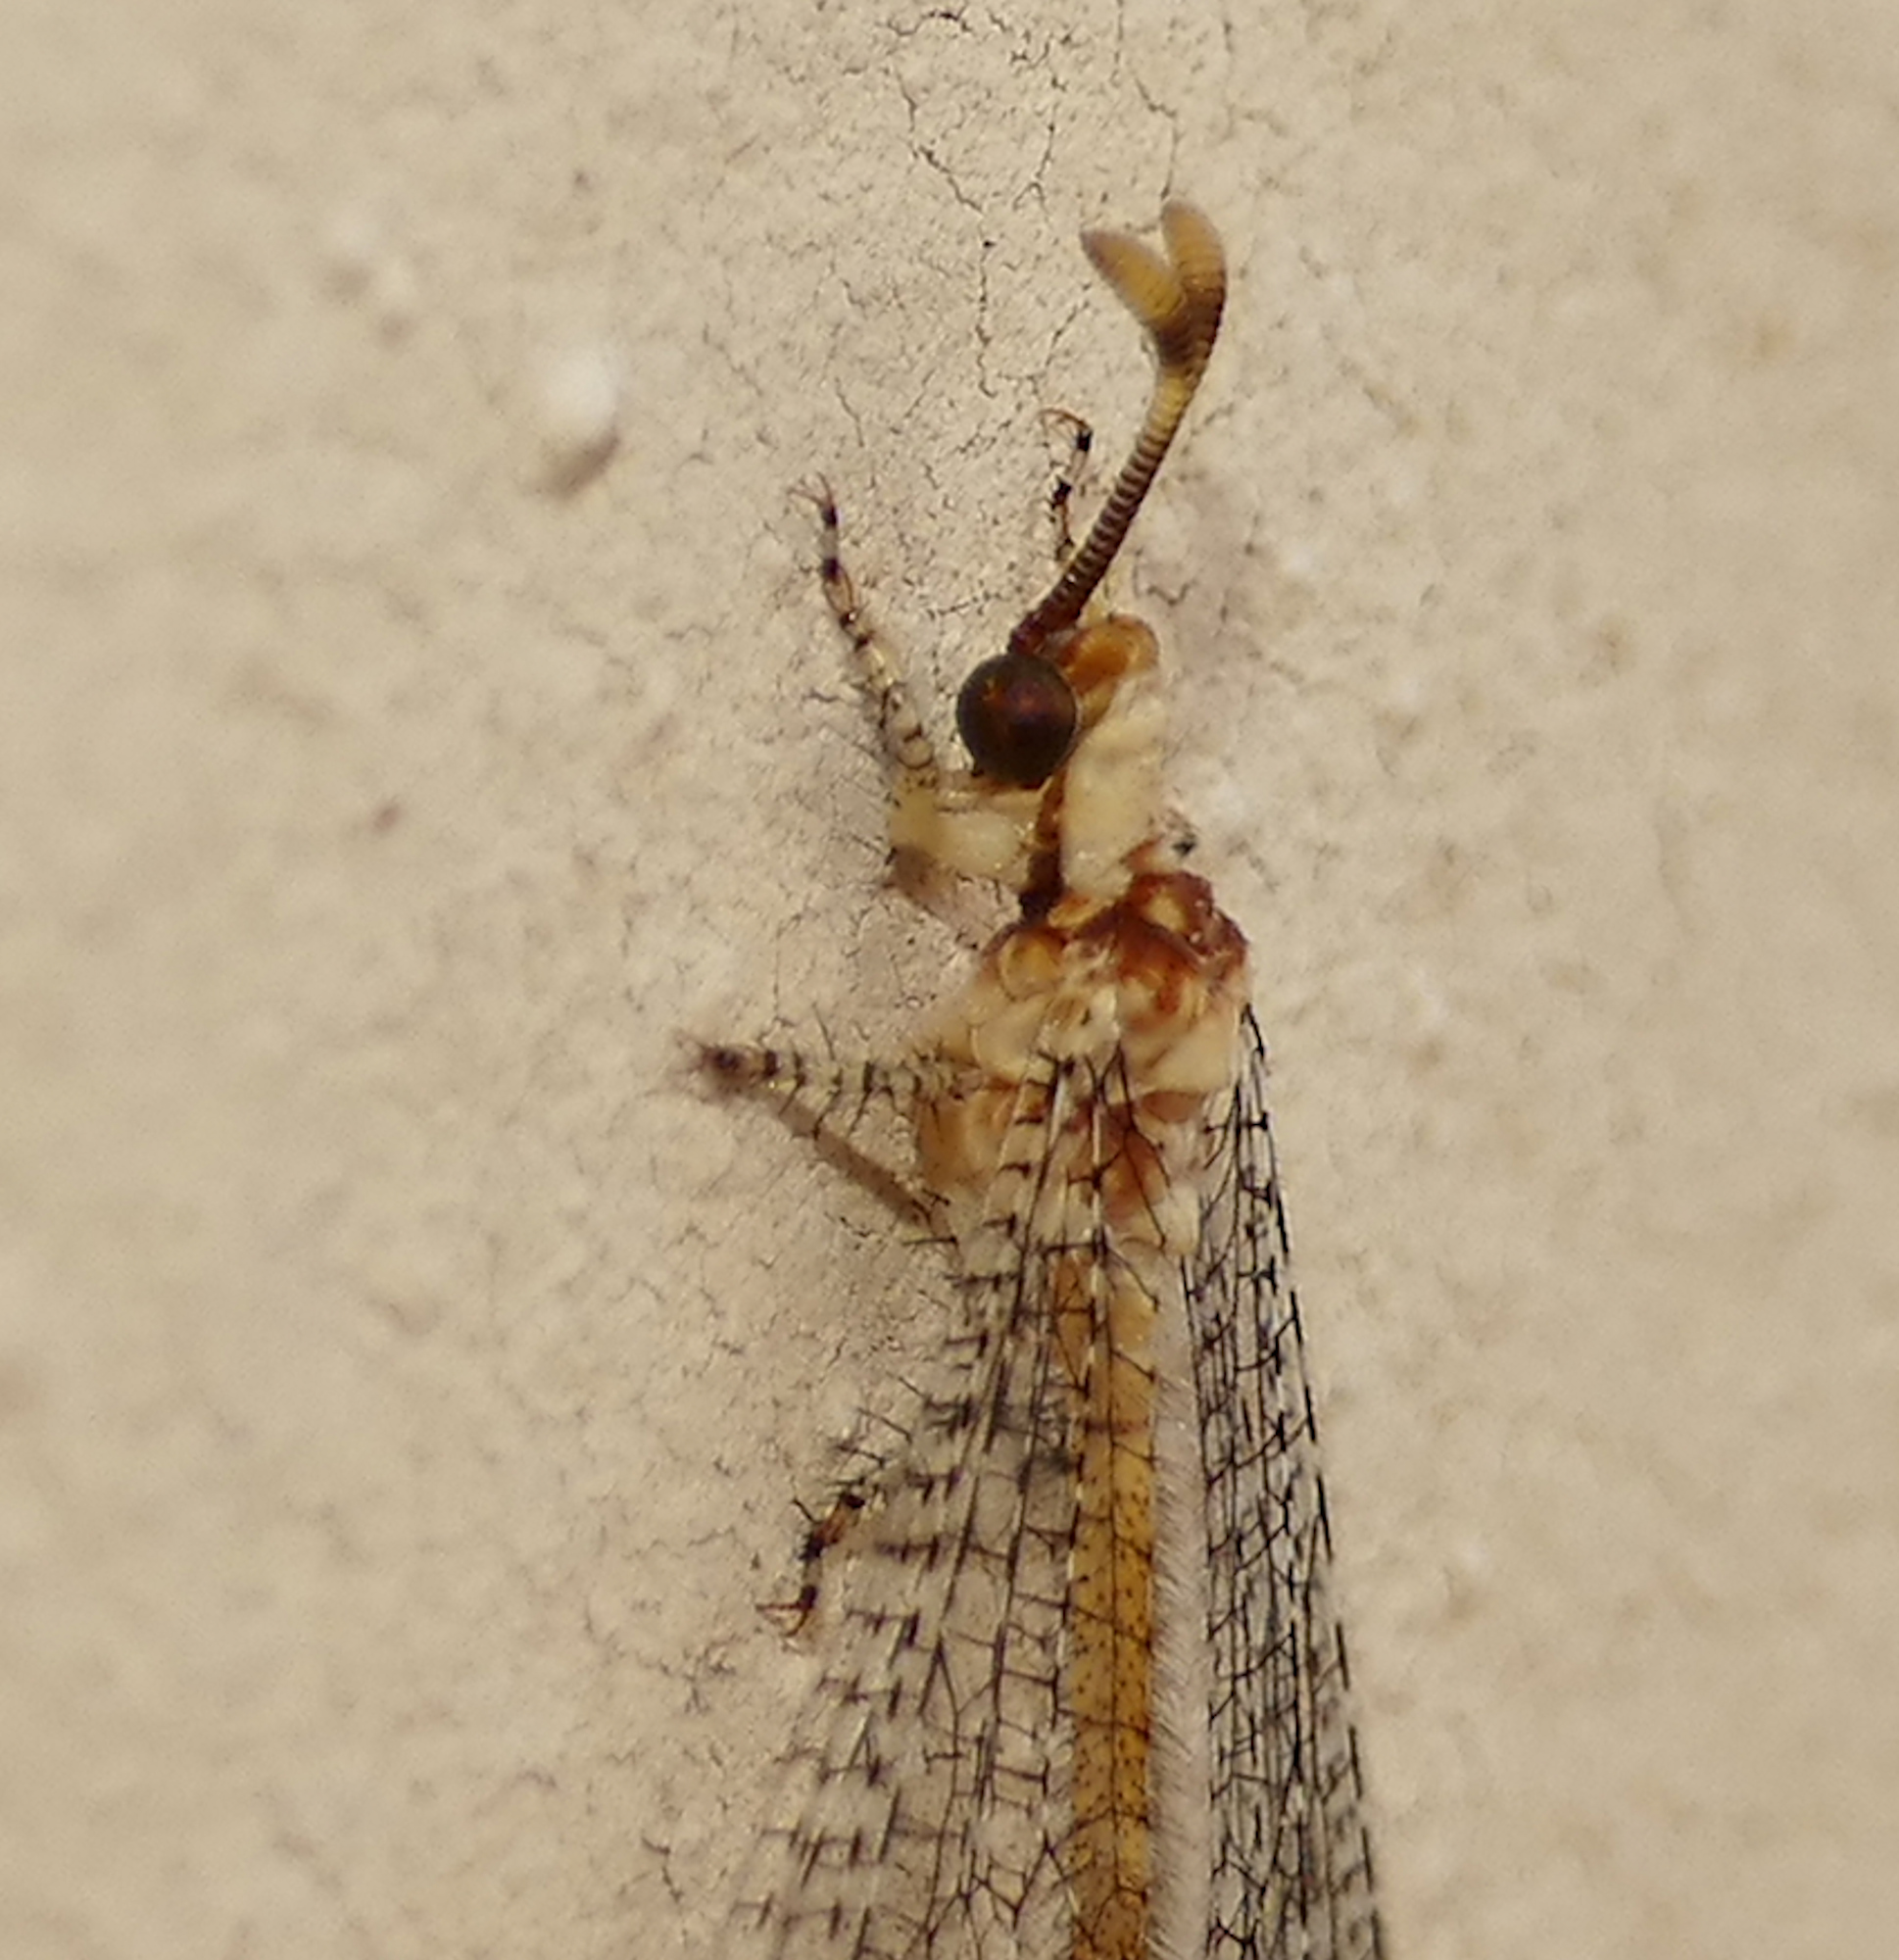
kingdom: Animalia
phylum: Arthropoda
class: Insecta
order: Neuroptera
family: Myrmeleontidae
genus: Clathroneuria
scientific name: Clathroneuria arapahoe
